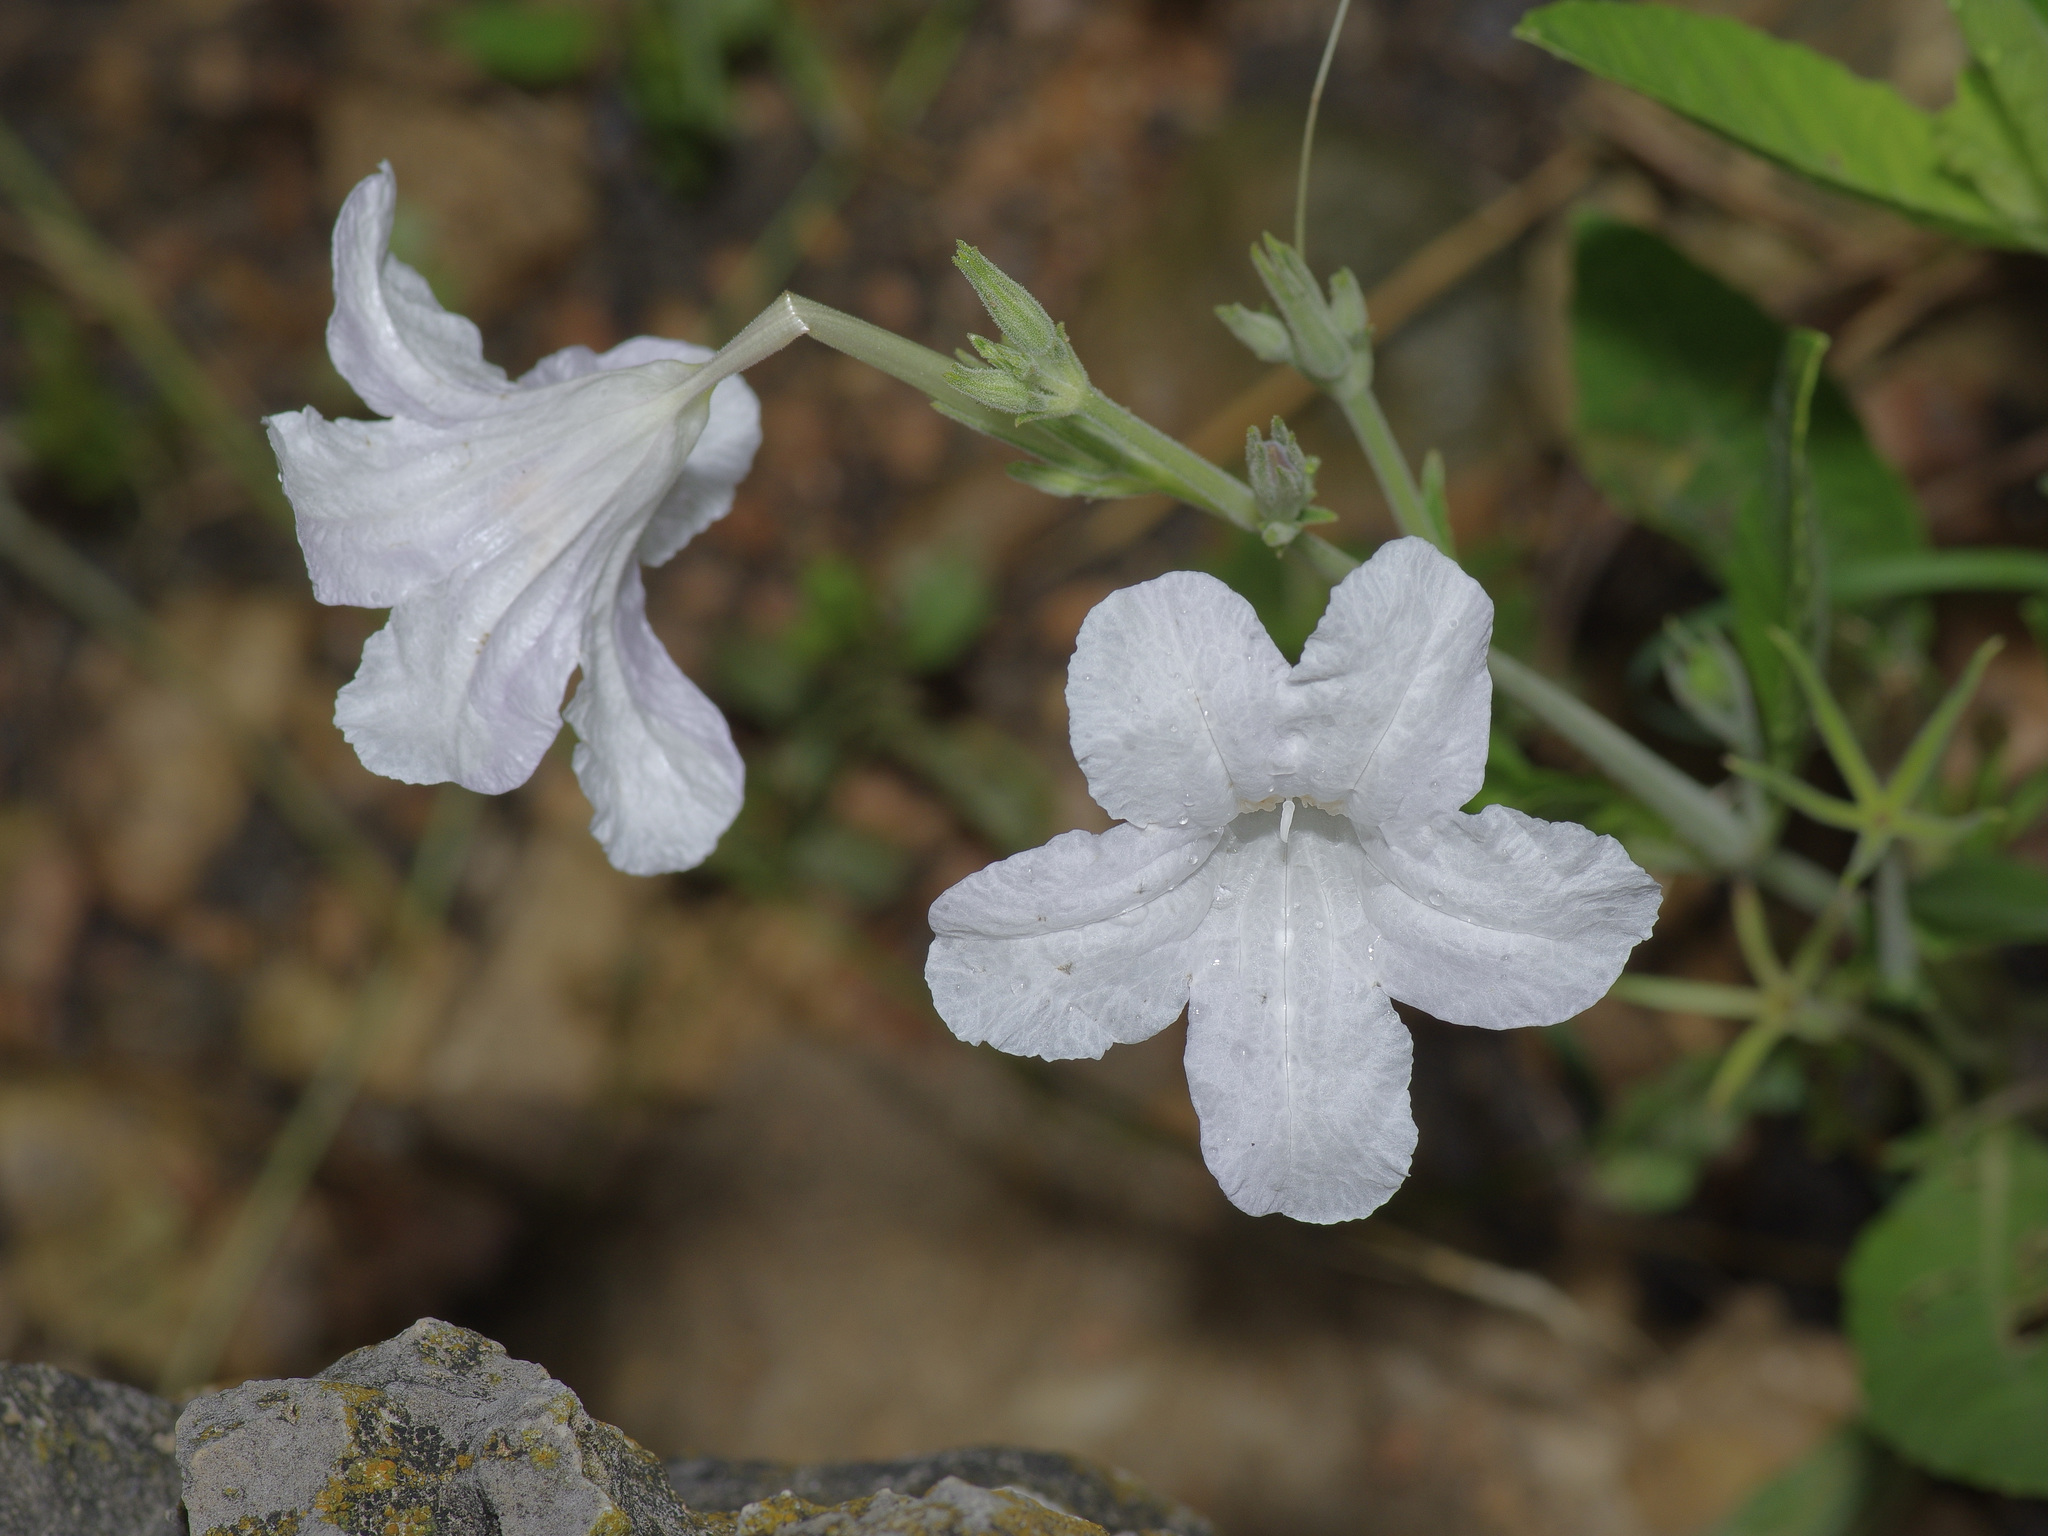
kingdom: Plantae
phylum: Tracheophyta
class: Magnoliopsida
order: Lamiales
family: Acanthaceae
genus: Ruellia
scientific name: Ruellia metziae
